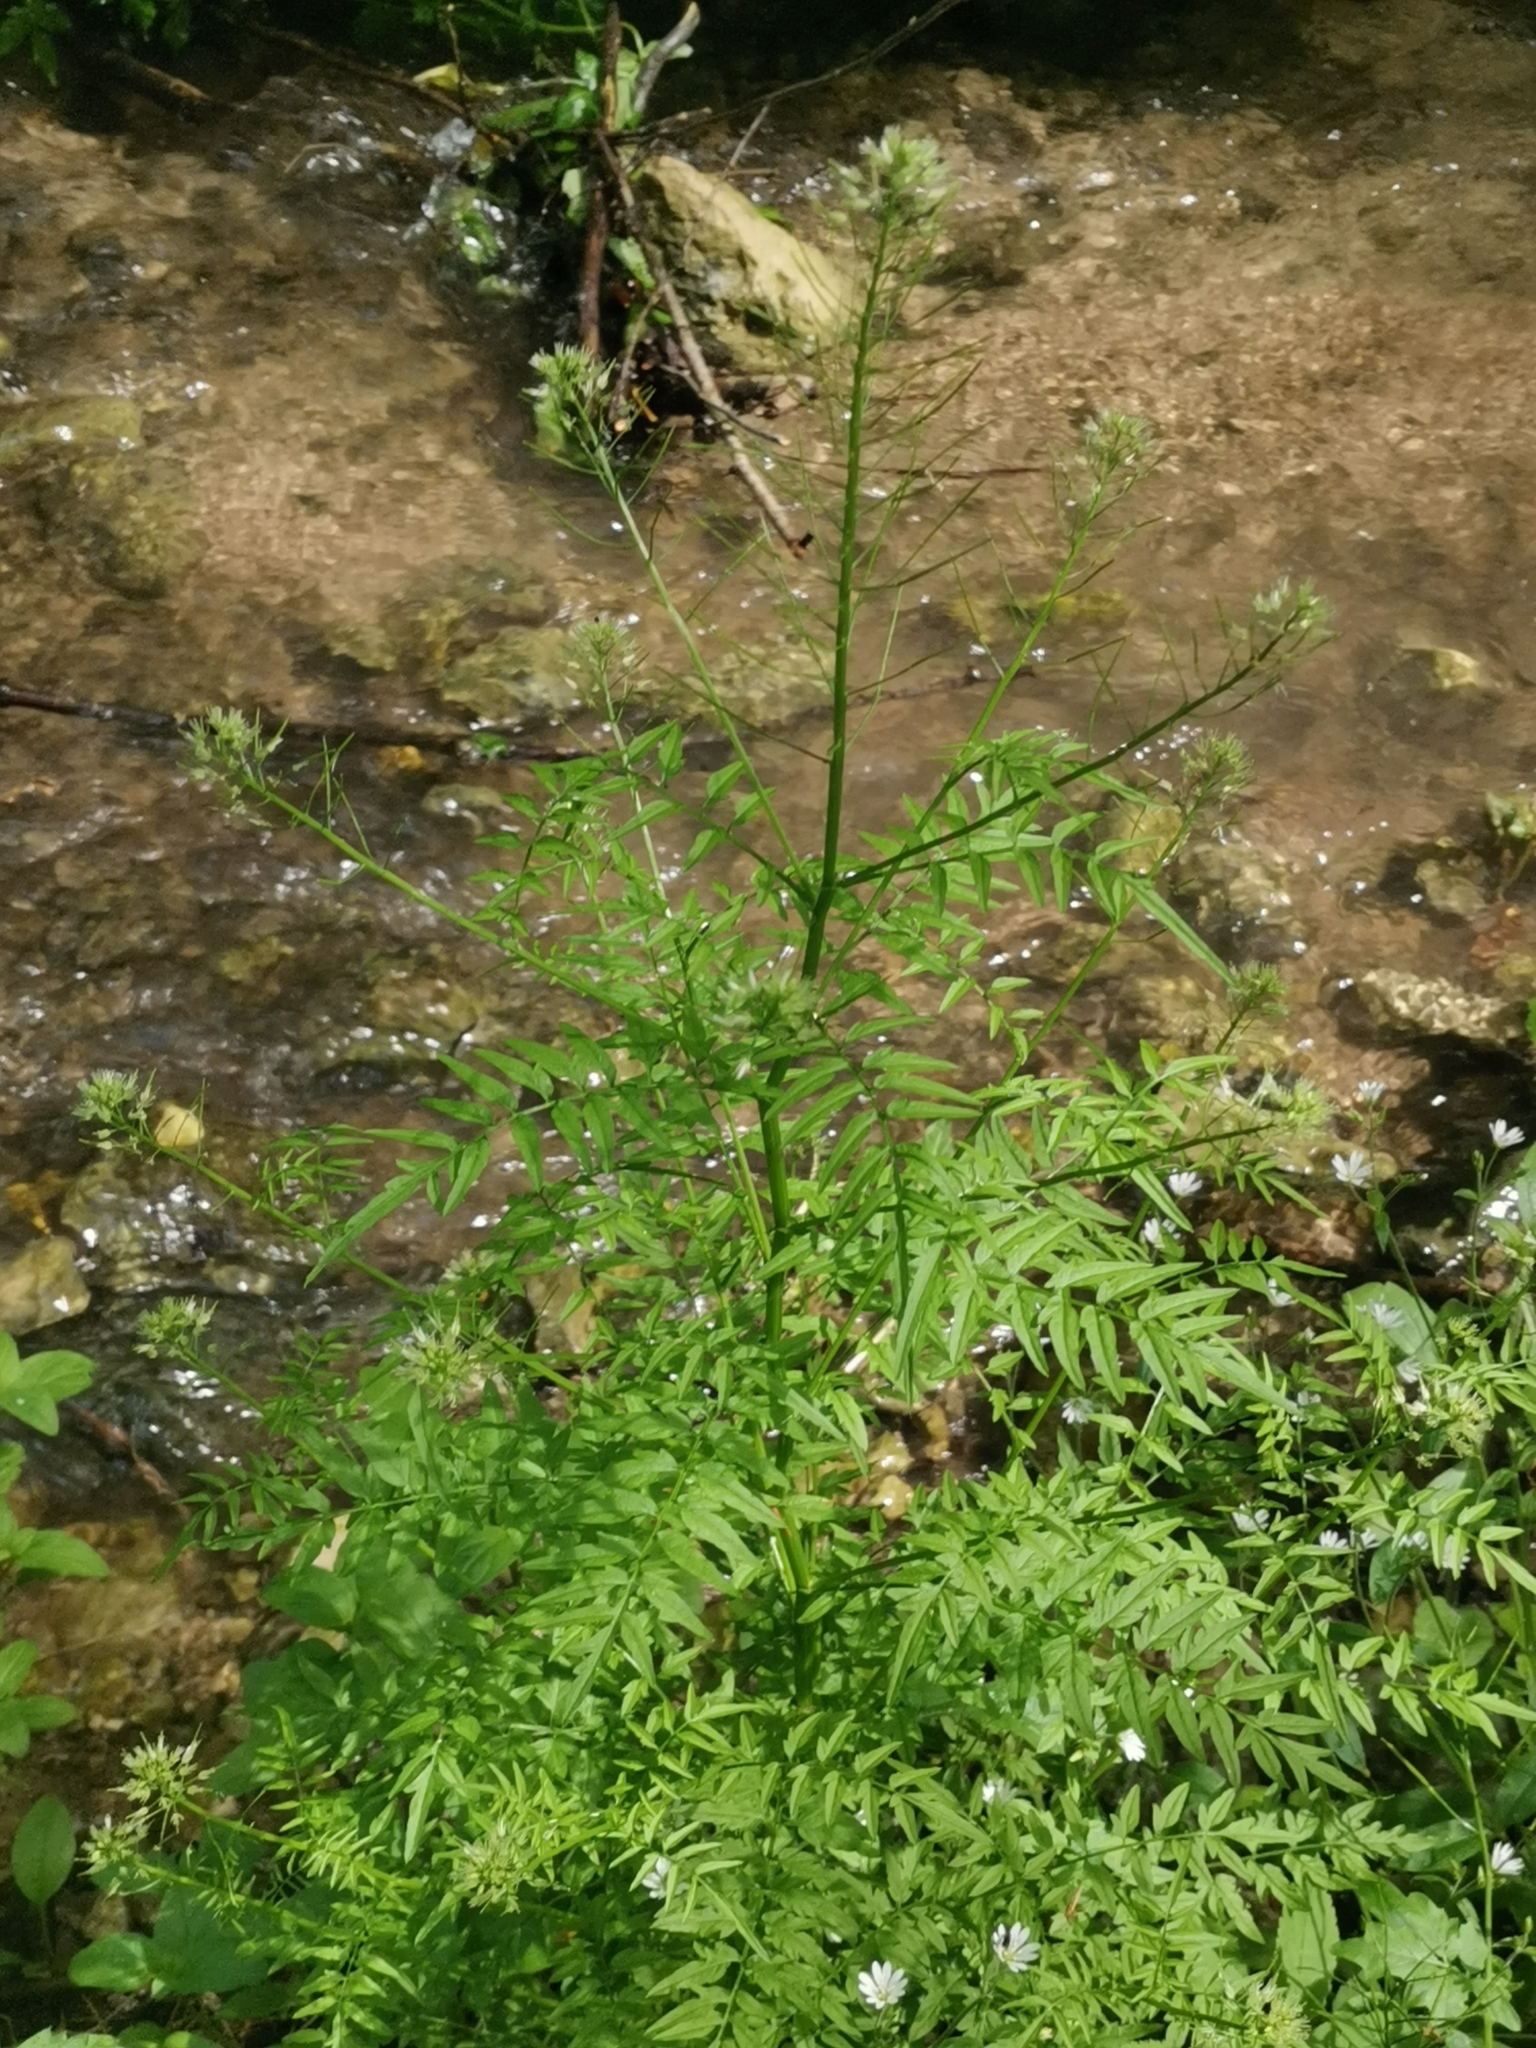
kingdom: Plantae
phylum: Tracheophyta
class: Magnoliopsida
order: Brassicales
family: Brassicaceae
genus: Cardamine
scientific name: Cardamine impatiens
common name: Narrow-leaved bitter-cress
